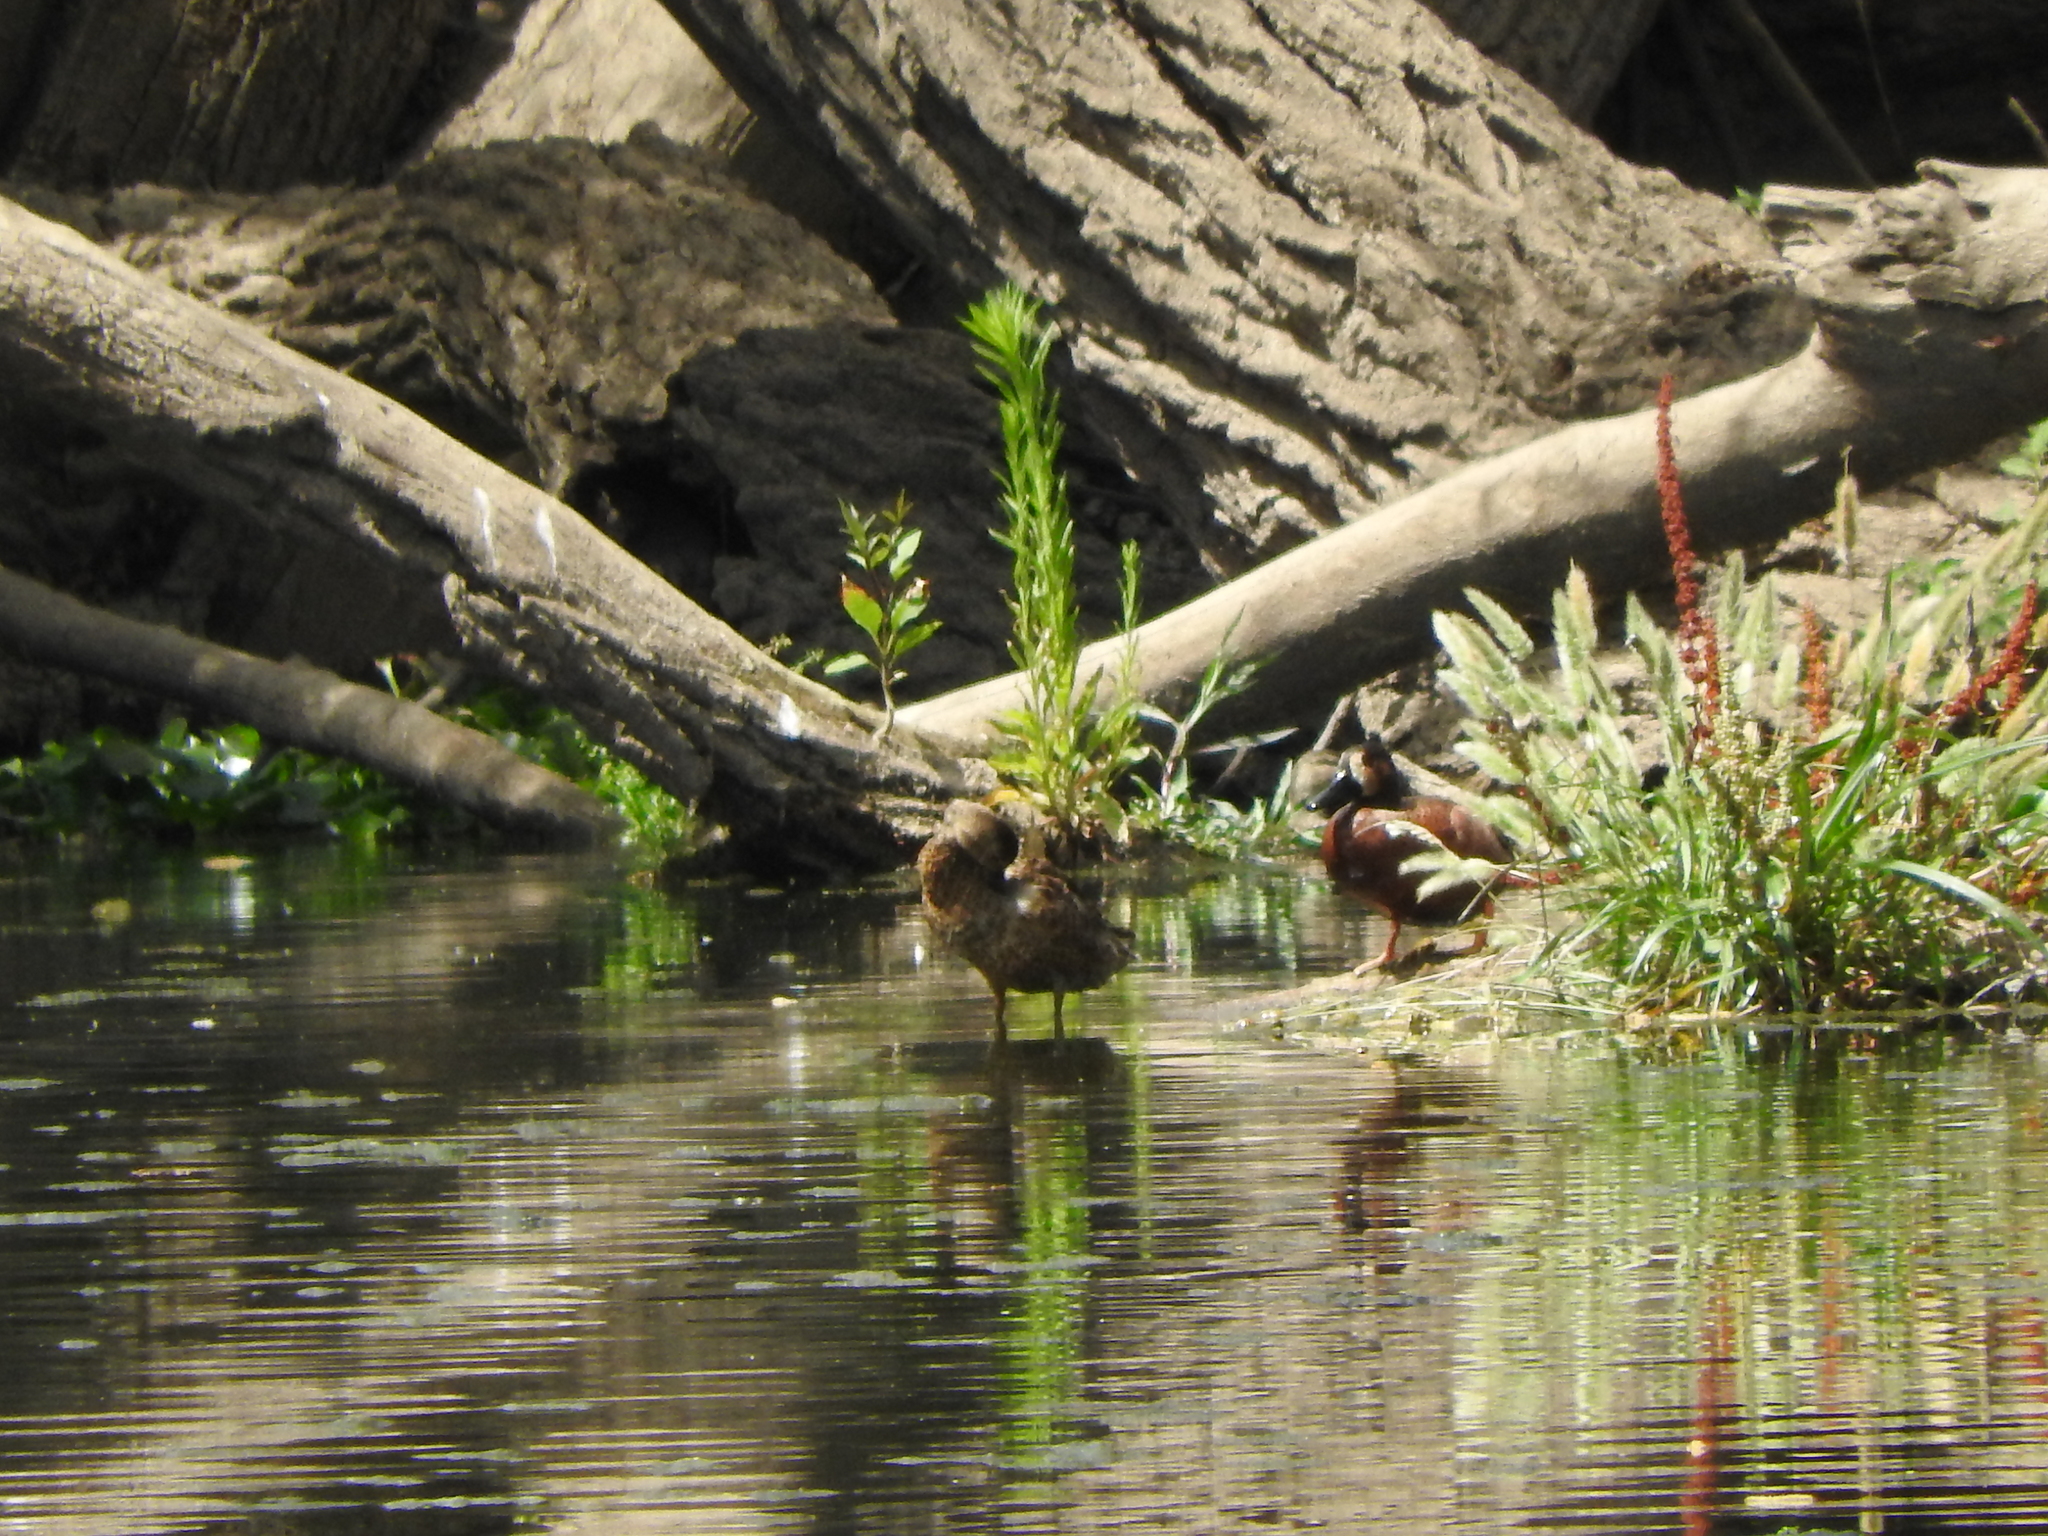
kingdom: Animalia
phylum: Chordata
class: Aves
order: Anseriformes
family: Anatidae
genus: Spatula
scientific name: Spatula cyanoptera
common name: Cinnamon teal
